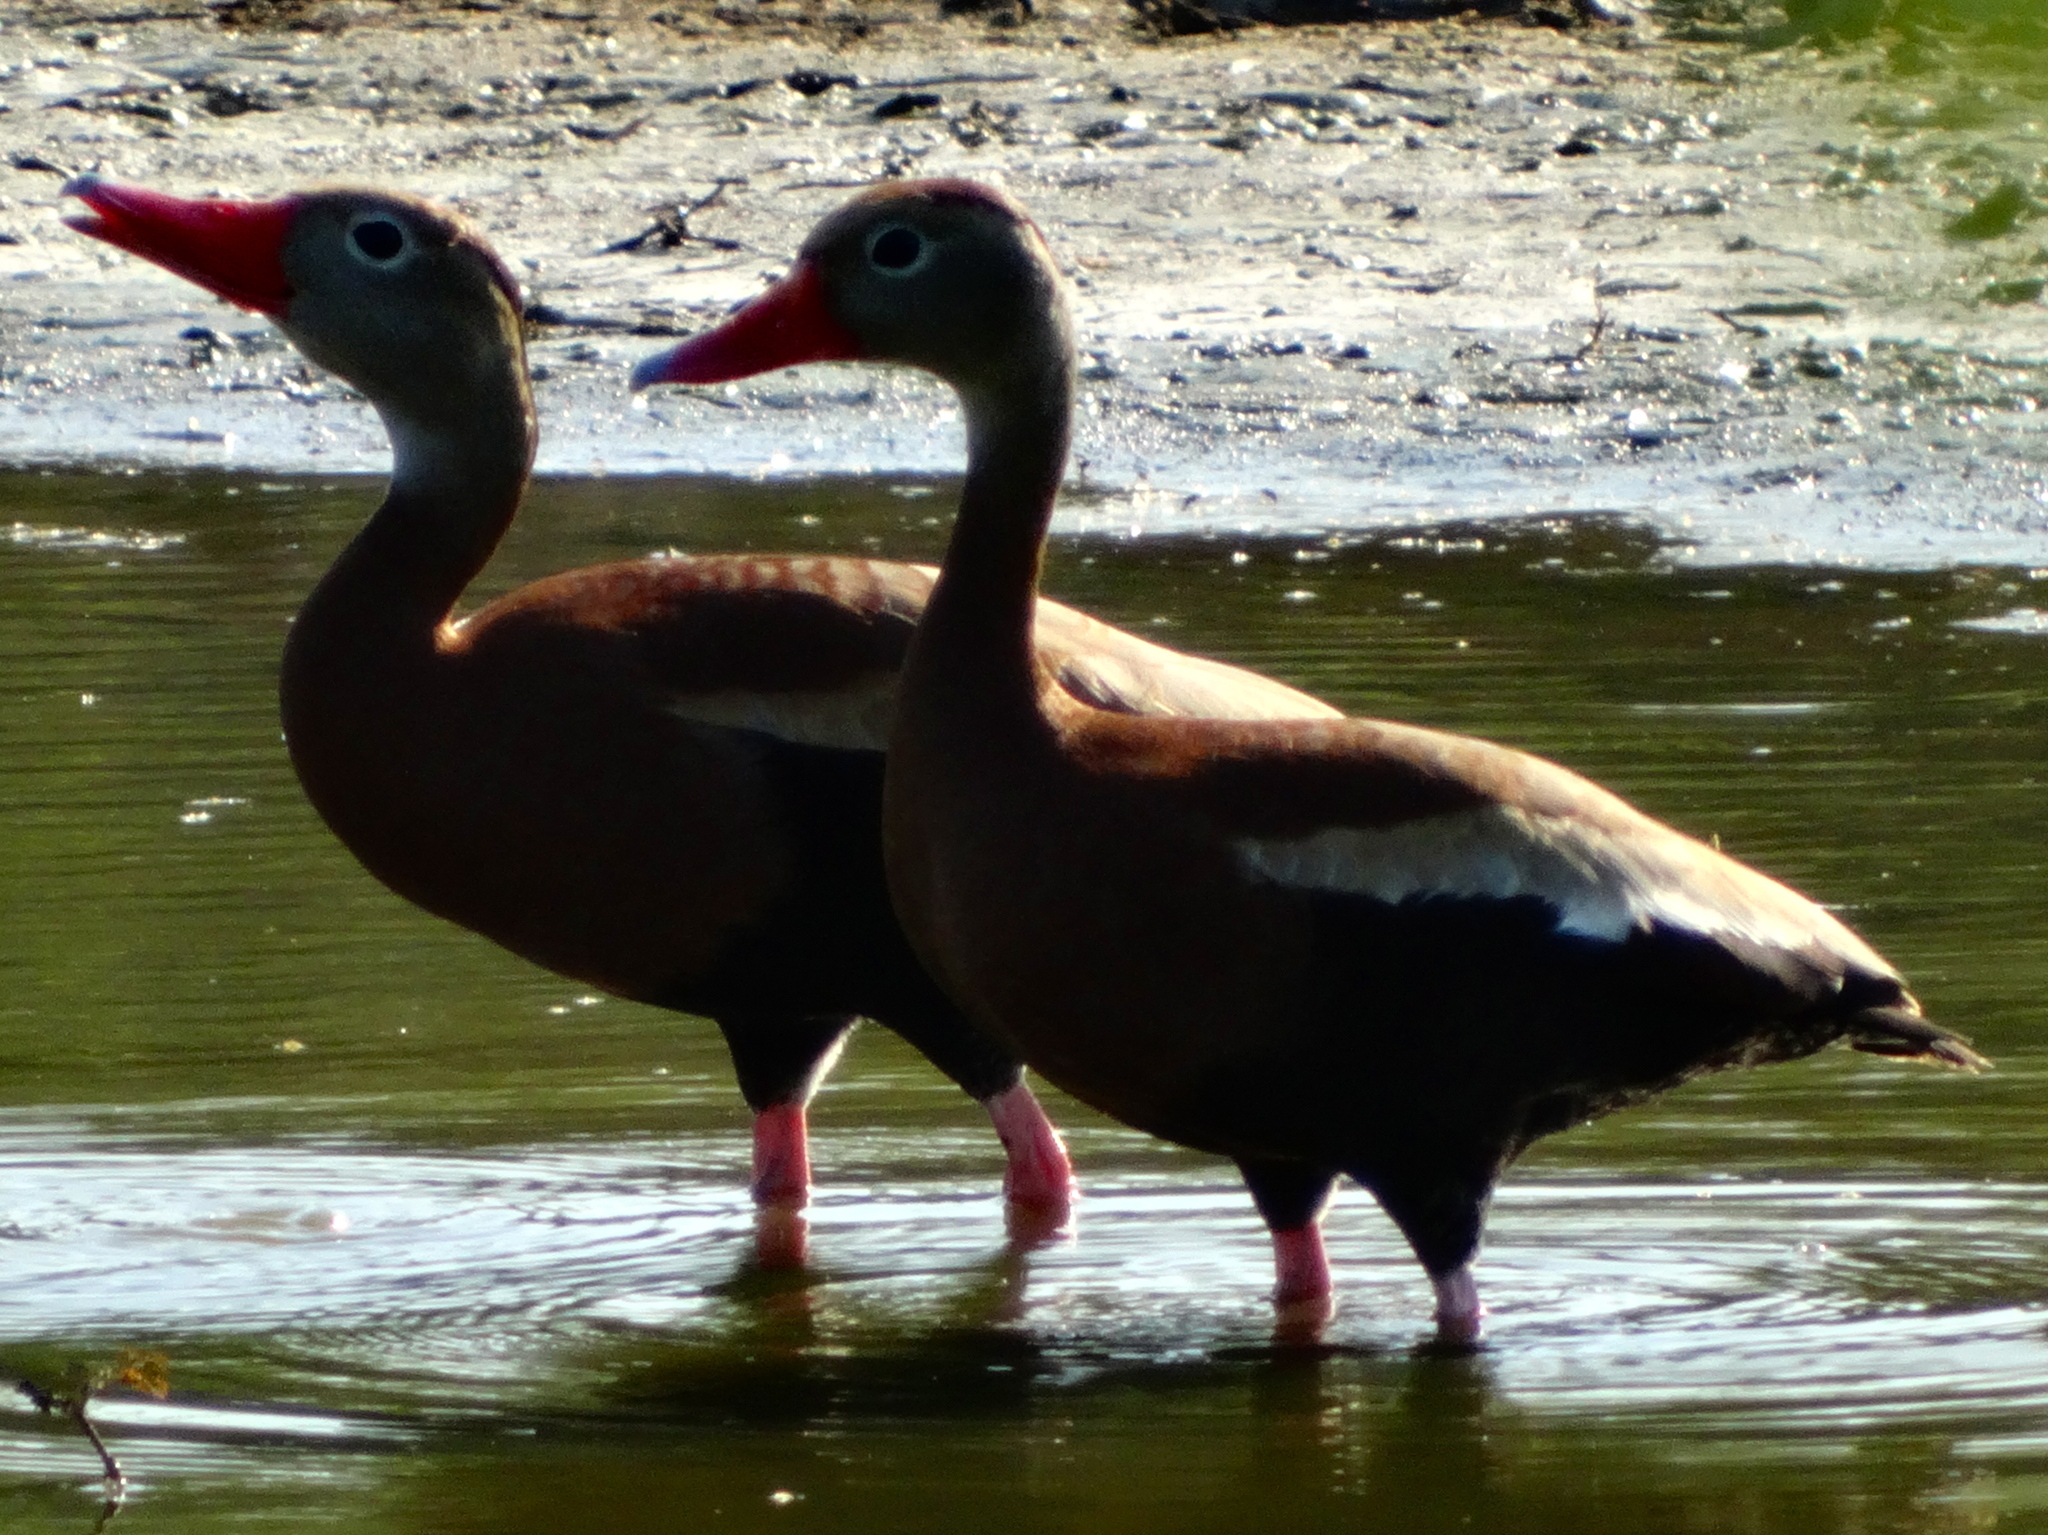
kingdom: Animalia
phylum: Chordata
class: Aves
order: Anseriformes
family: Anatidae
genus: Dendrocygna
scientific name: Dendrocygna autumnalis
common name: Black-bellied whistling duck
